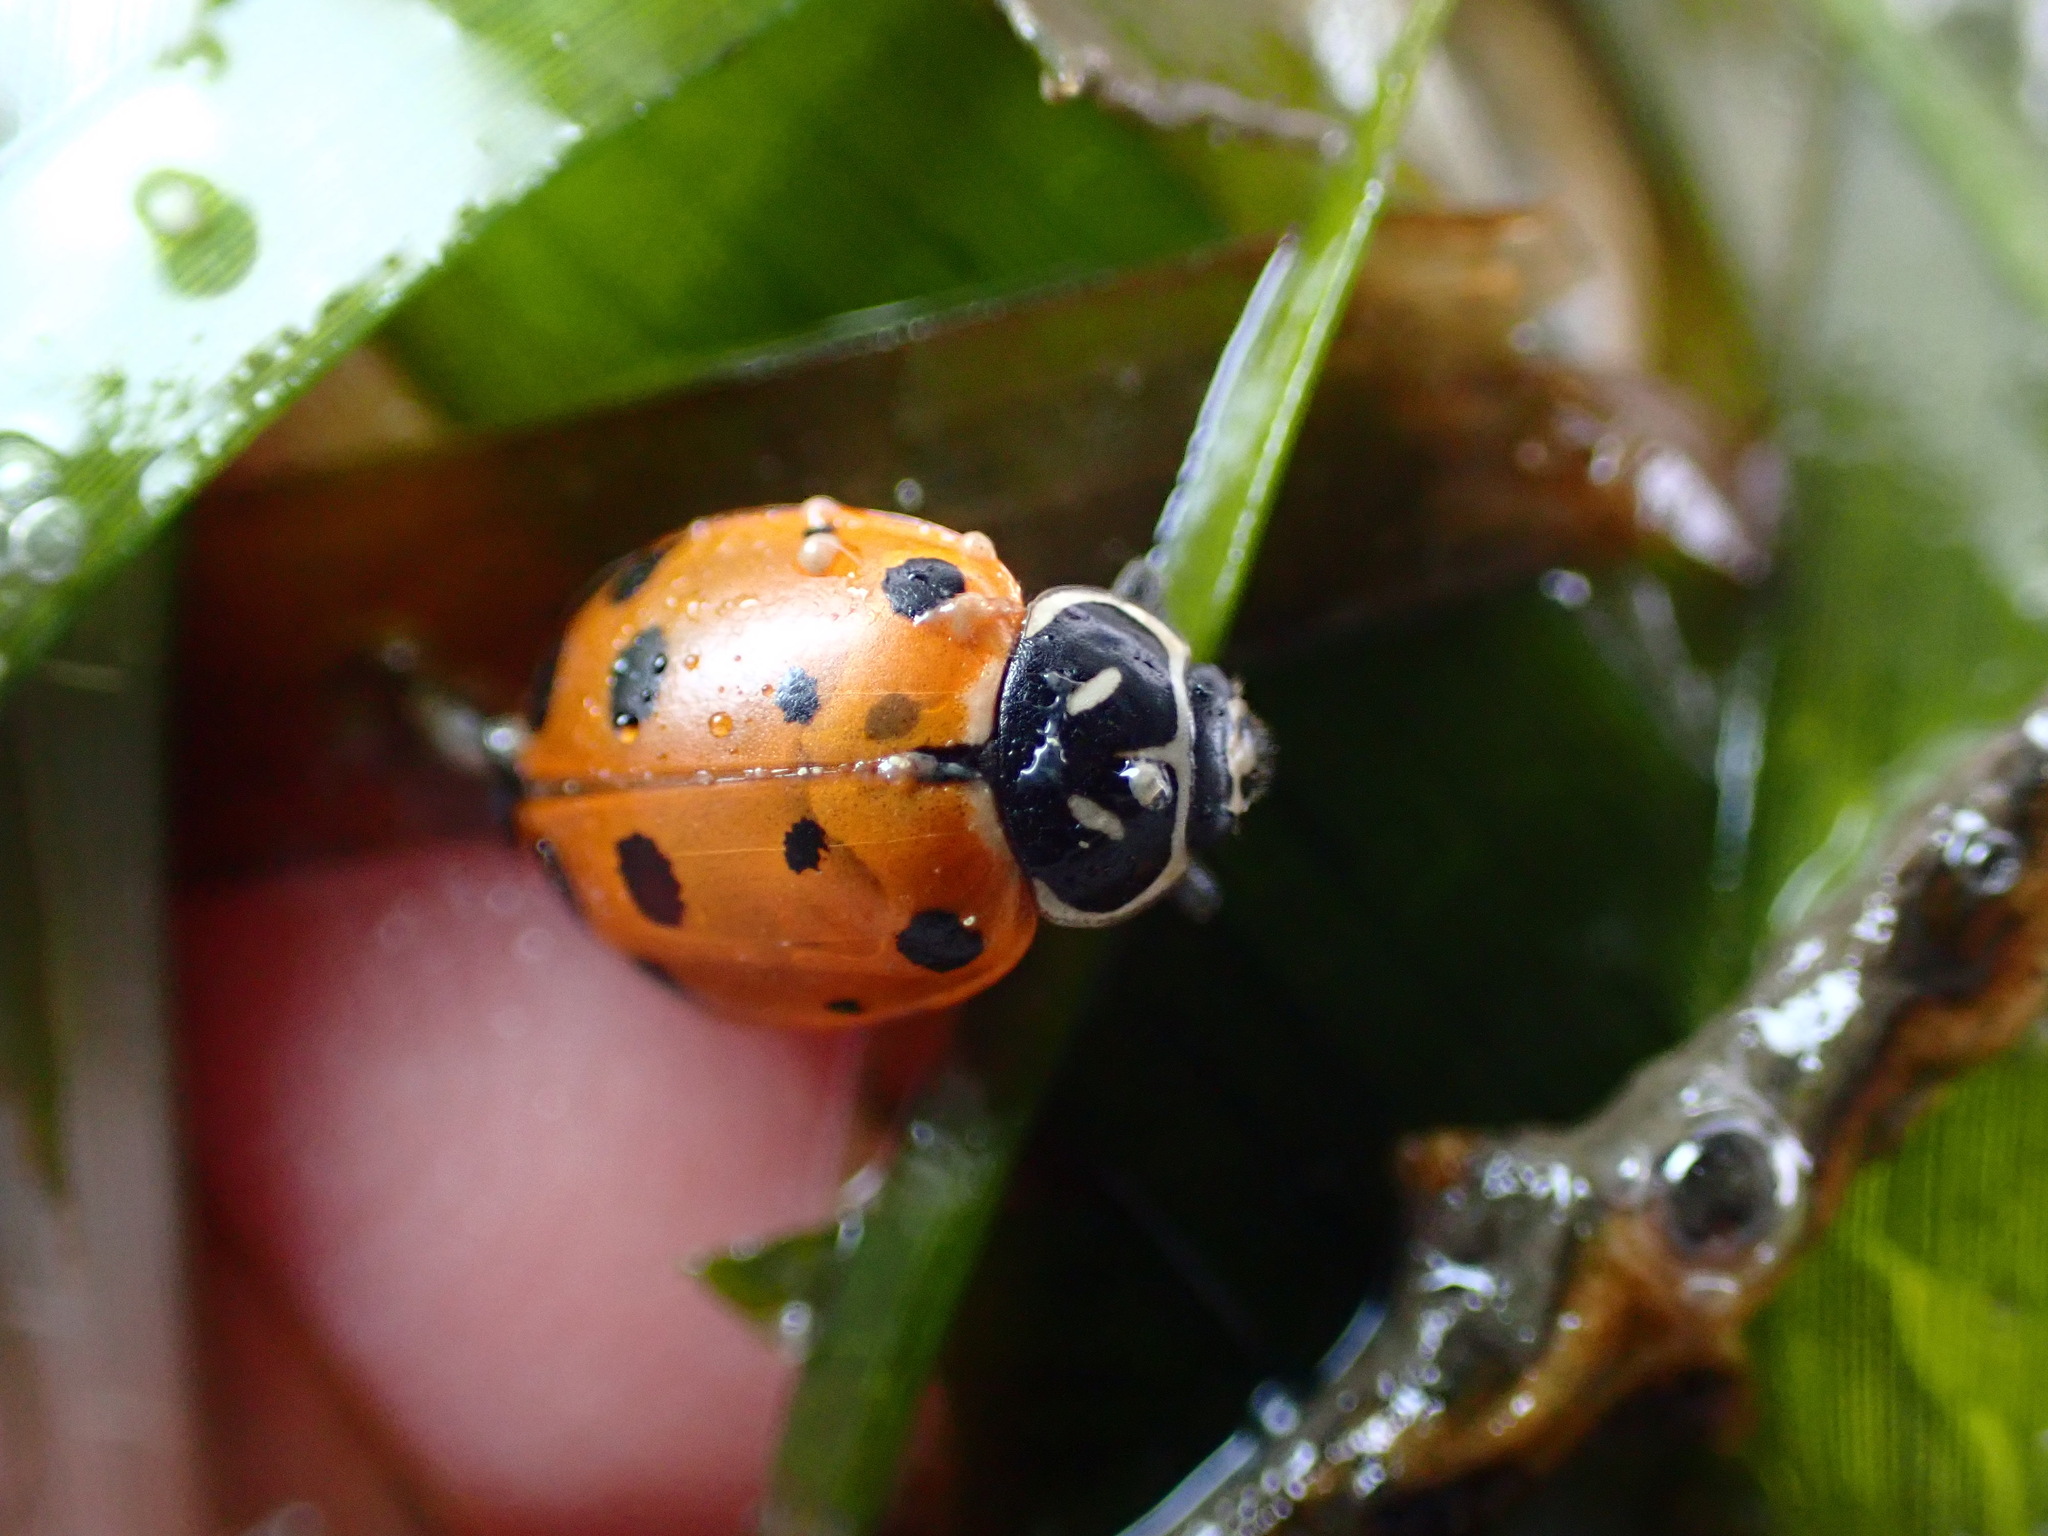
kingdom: Animalia
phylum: Arthropoda
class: Insecta
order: Coleoptera
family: Coccinellidae
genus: Hippodamia
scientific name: Hippodamia convergens
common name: Convergent lady beetle
